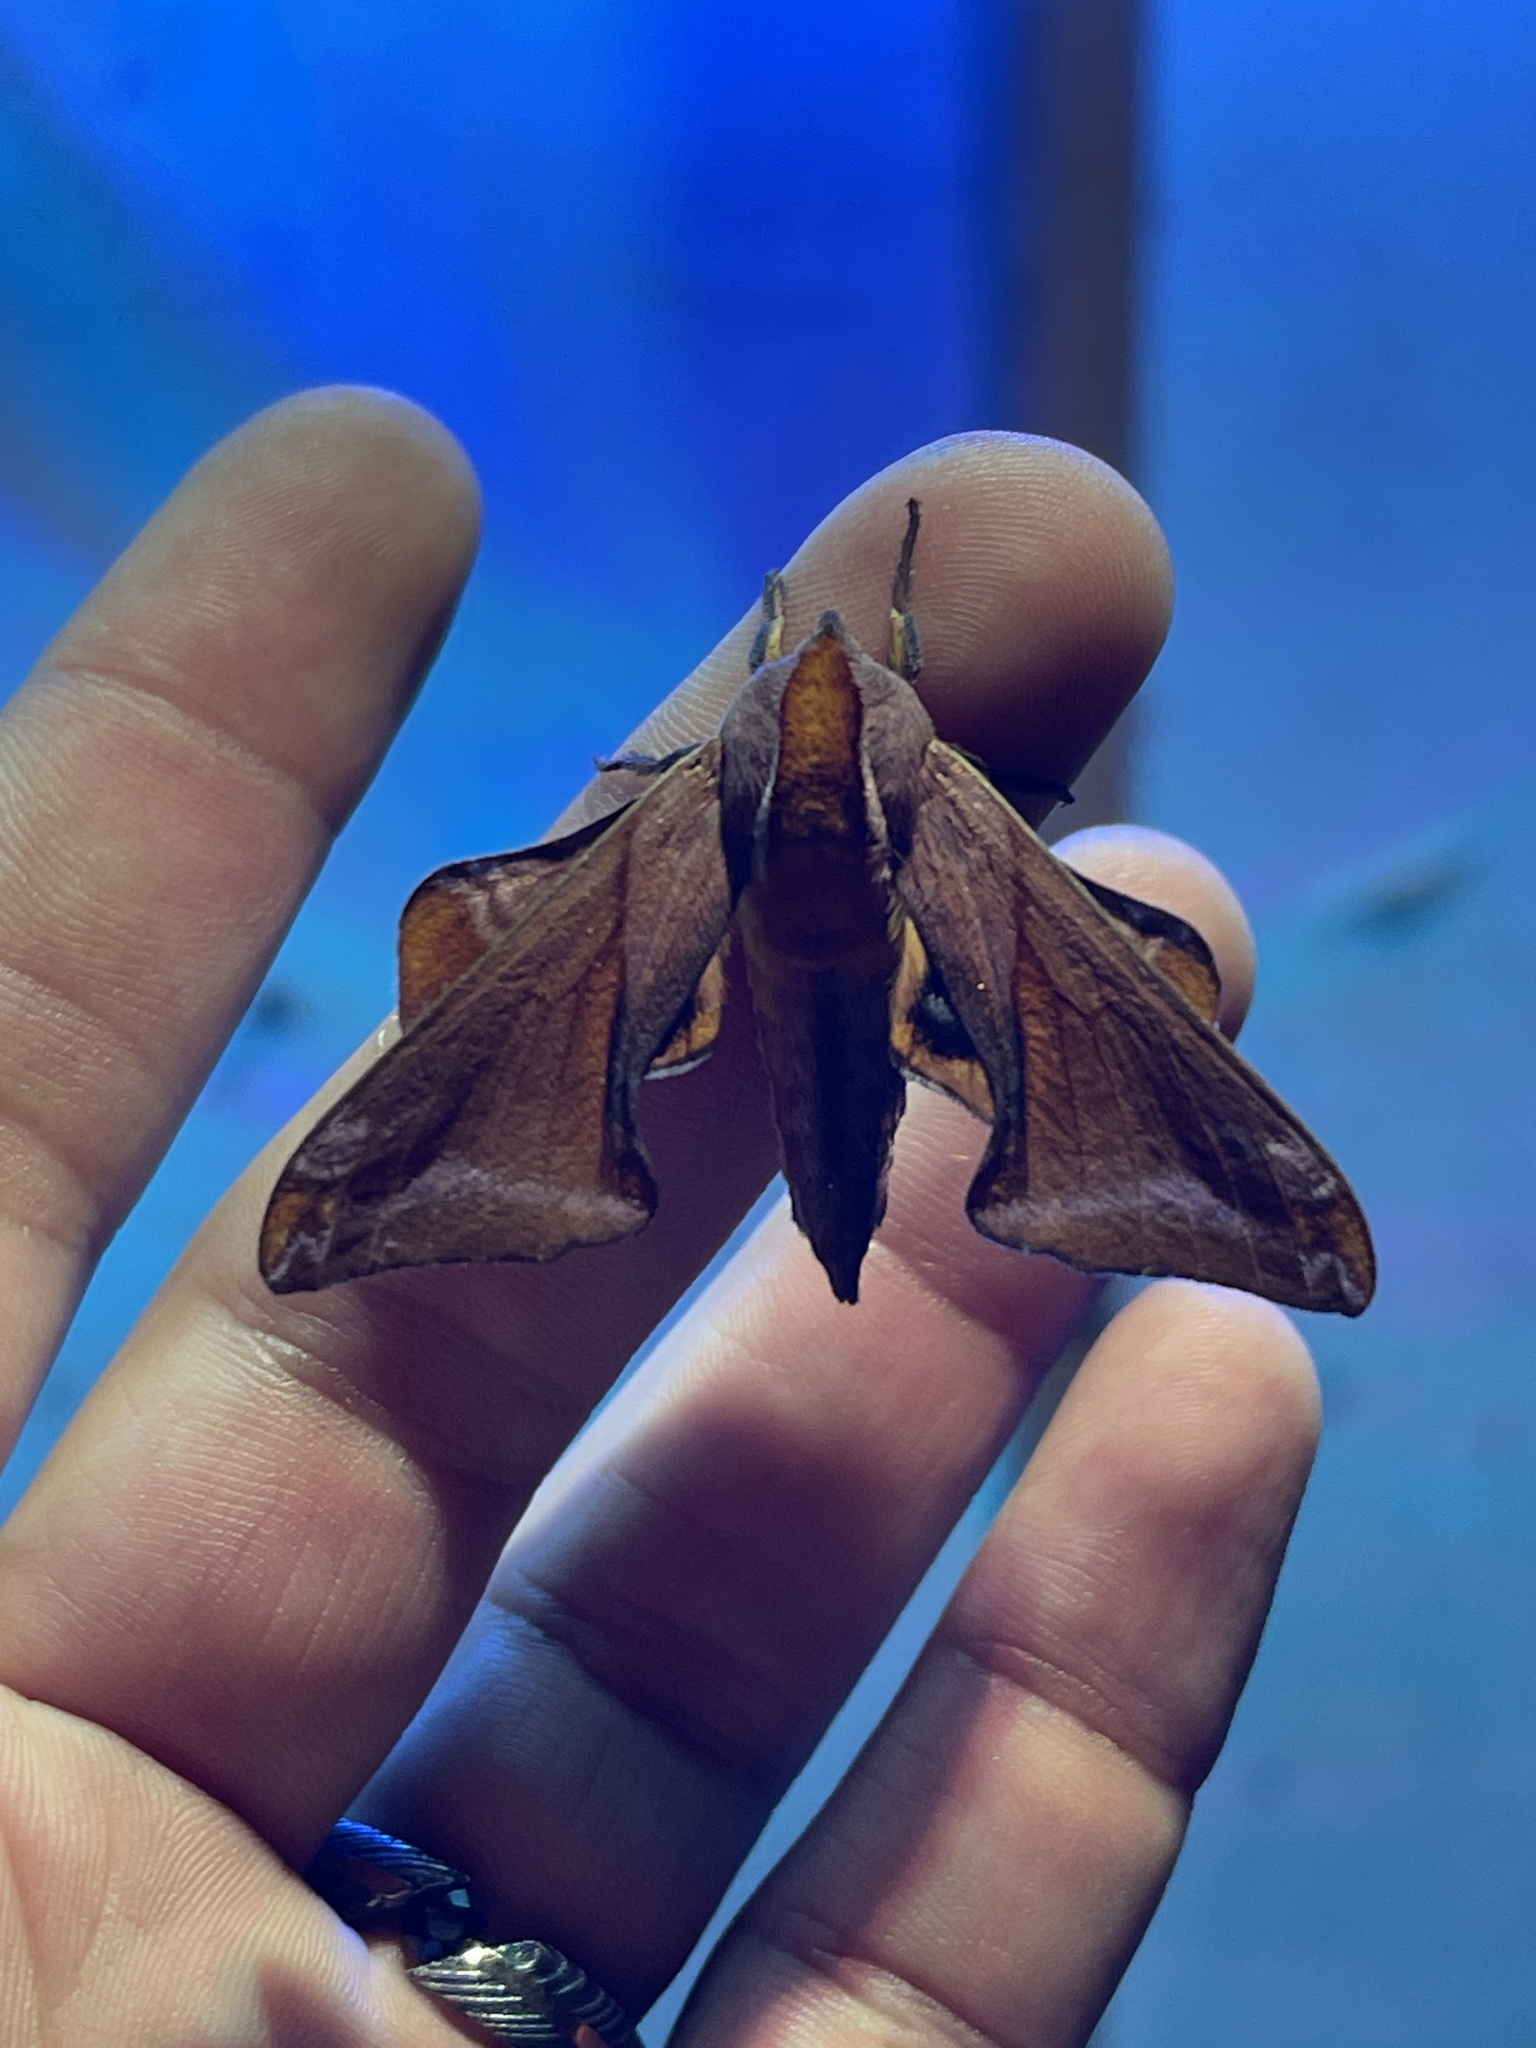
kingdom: Animalia
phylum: Arthropoda
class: Insecta
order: Lepidoptera
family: Sphingidae
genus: Paonias
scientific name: Paonias astylus
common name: Huckleberry sphinx
